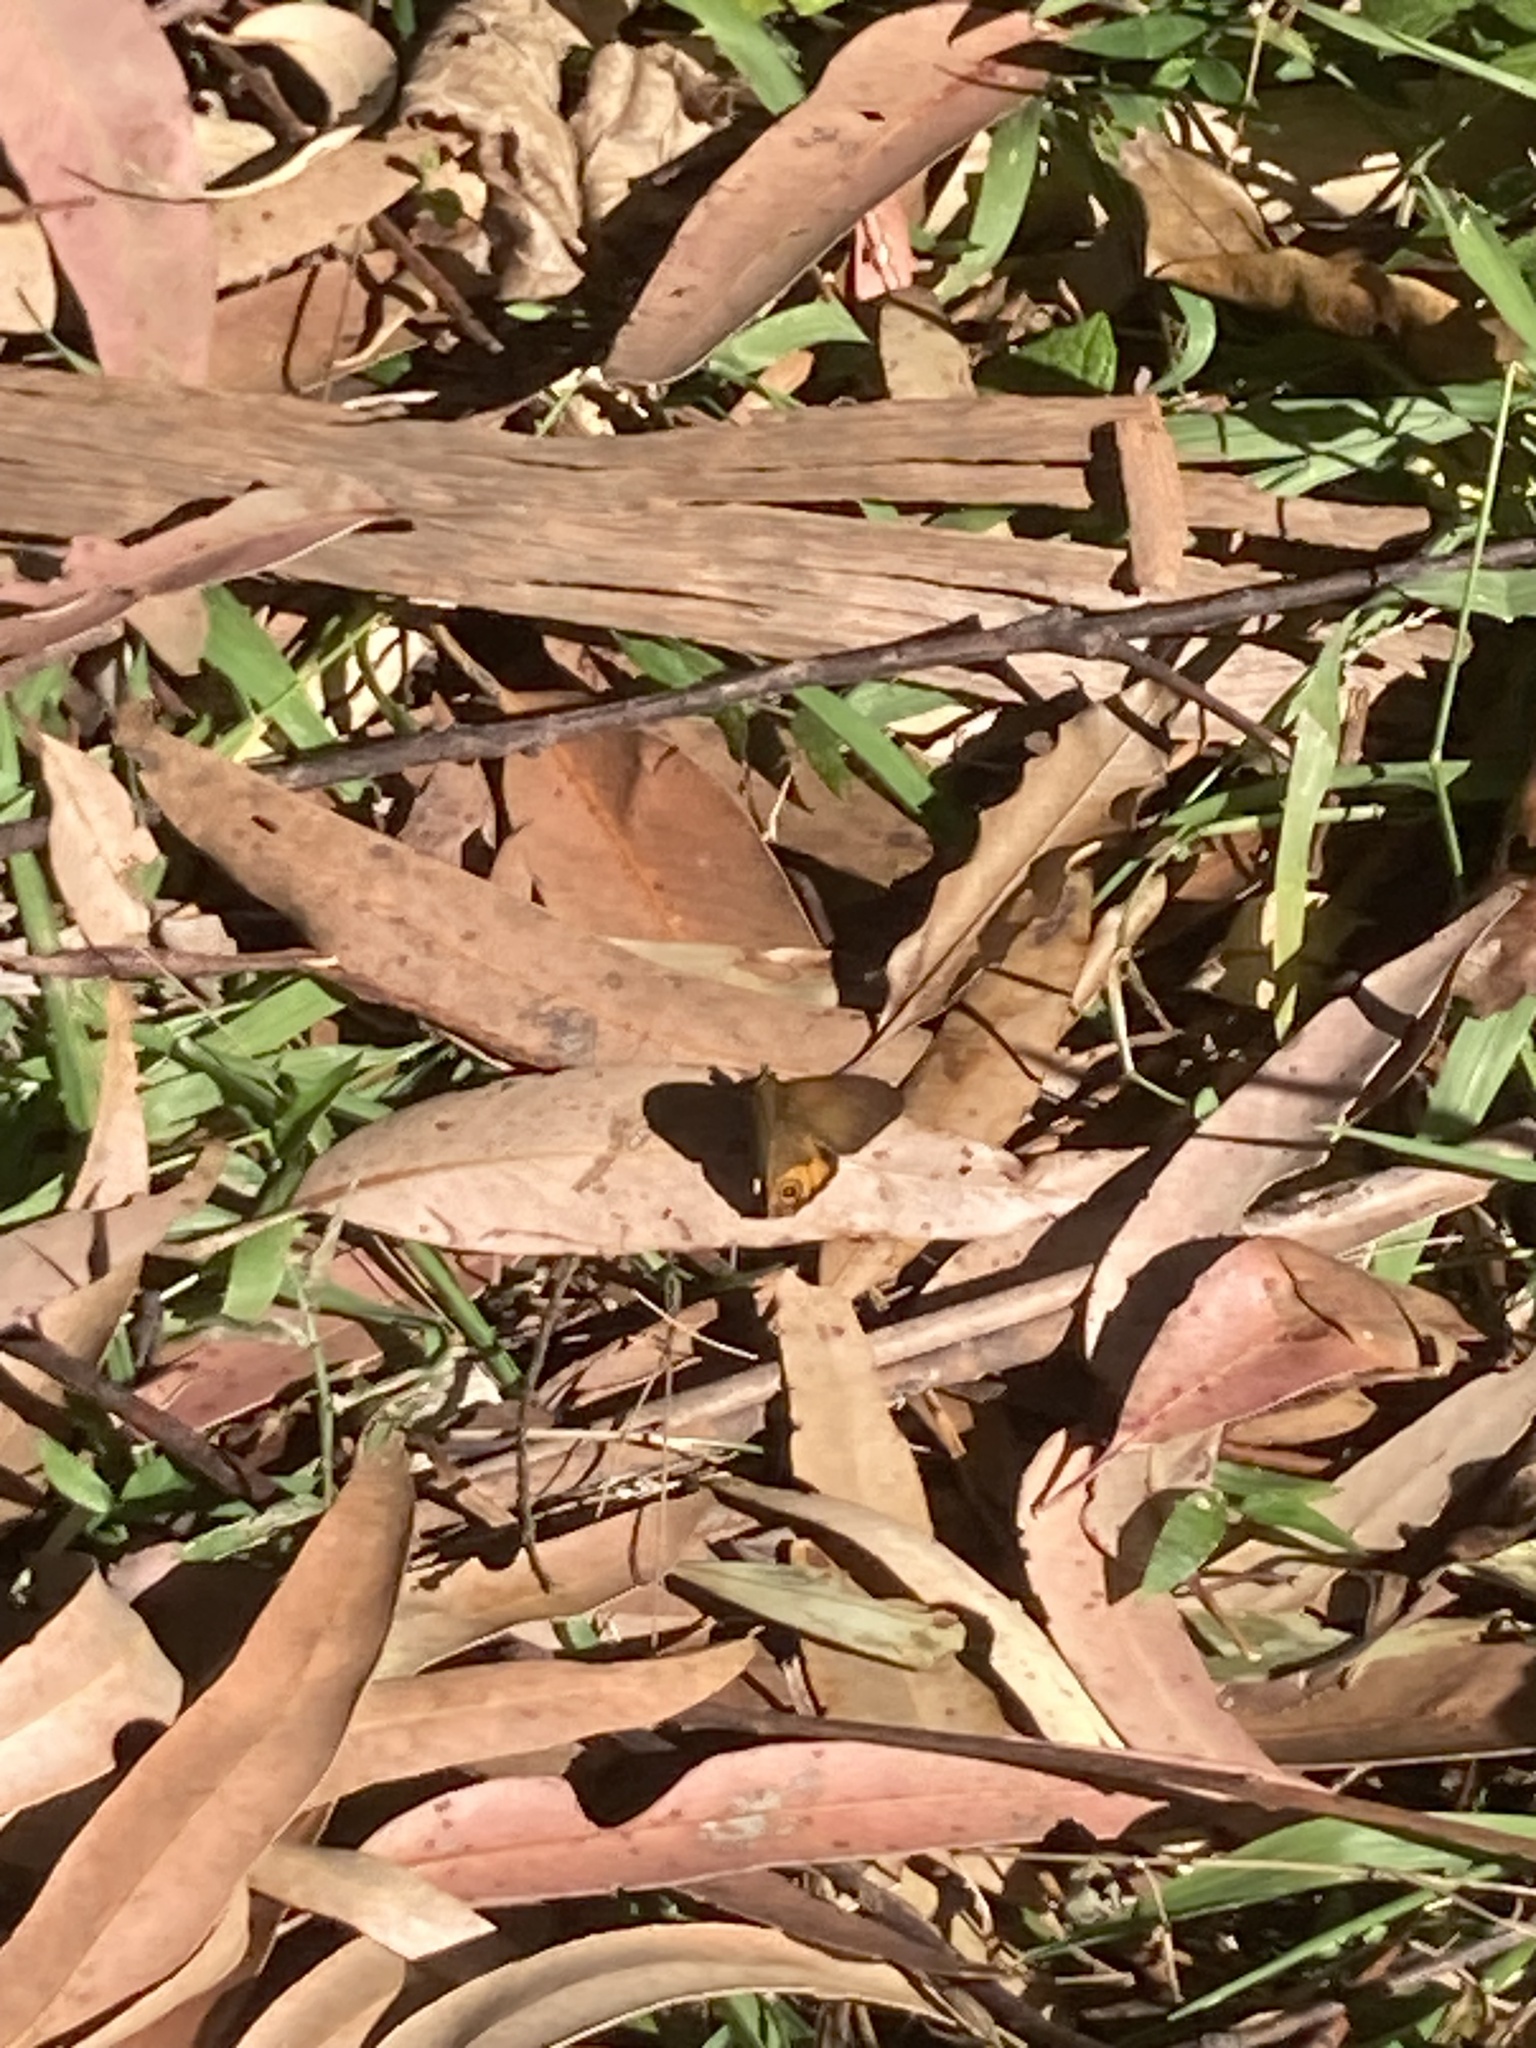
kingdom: Animalia
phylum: Arthropoda
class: Insecta
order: Lepidoptera
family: Nymphalidae
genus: Hypocysta
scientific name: Hypocysta metirius
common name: Brown ringlet
